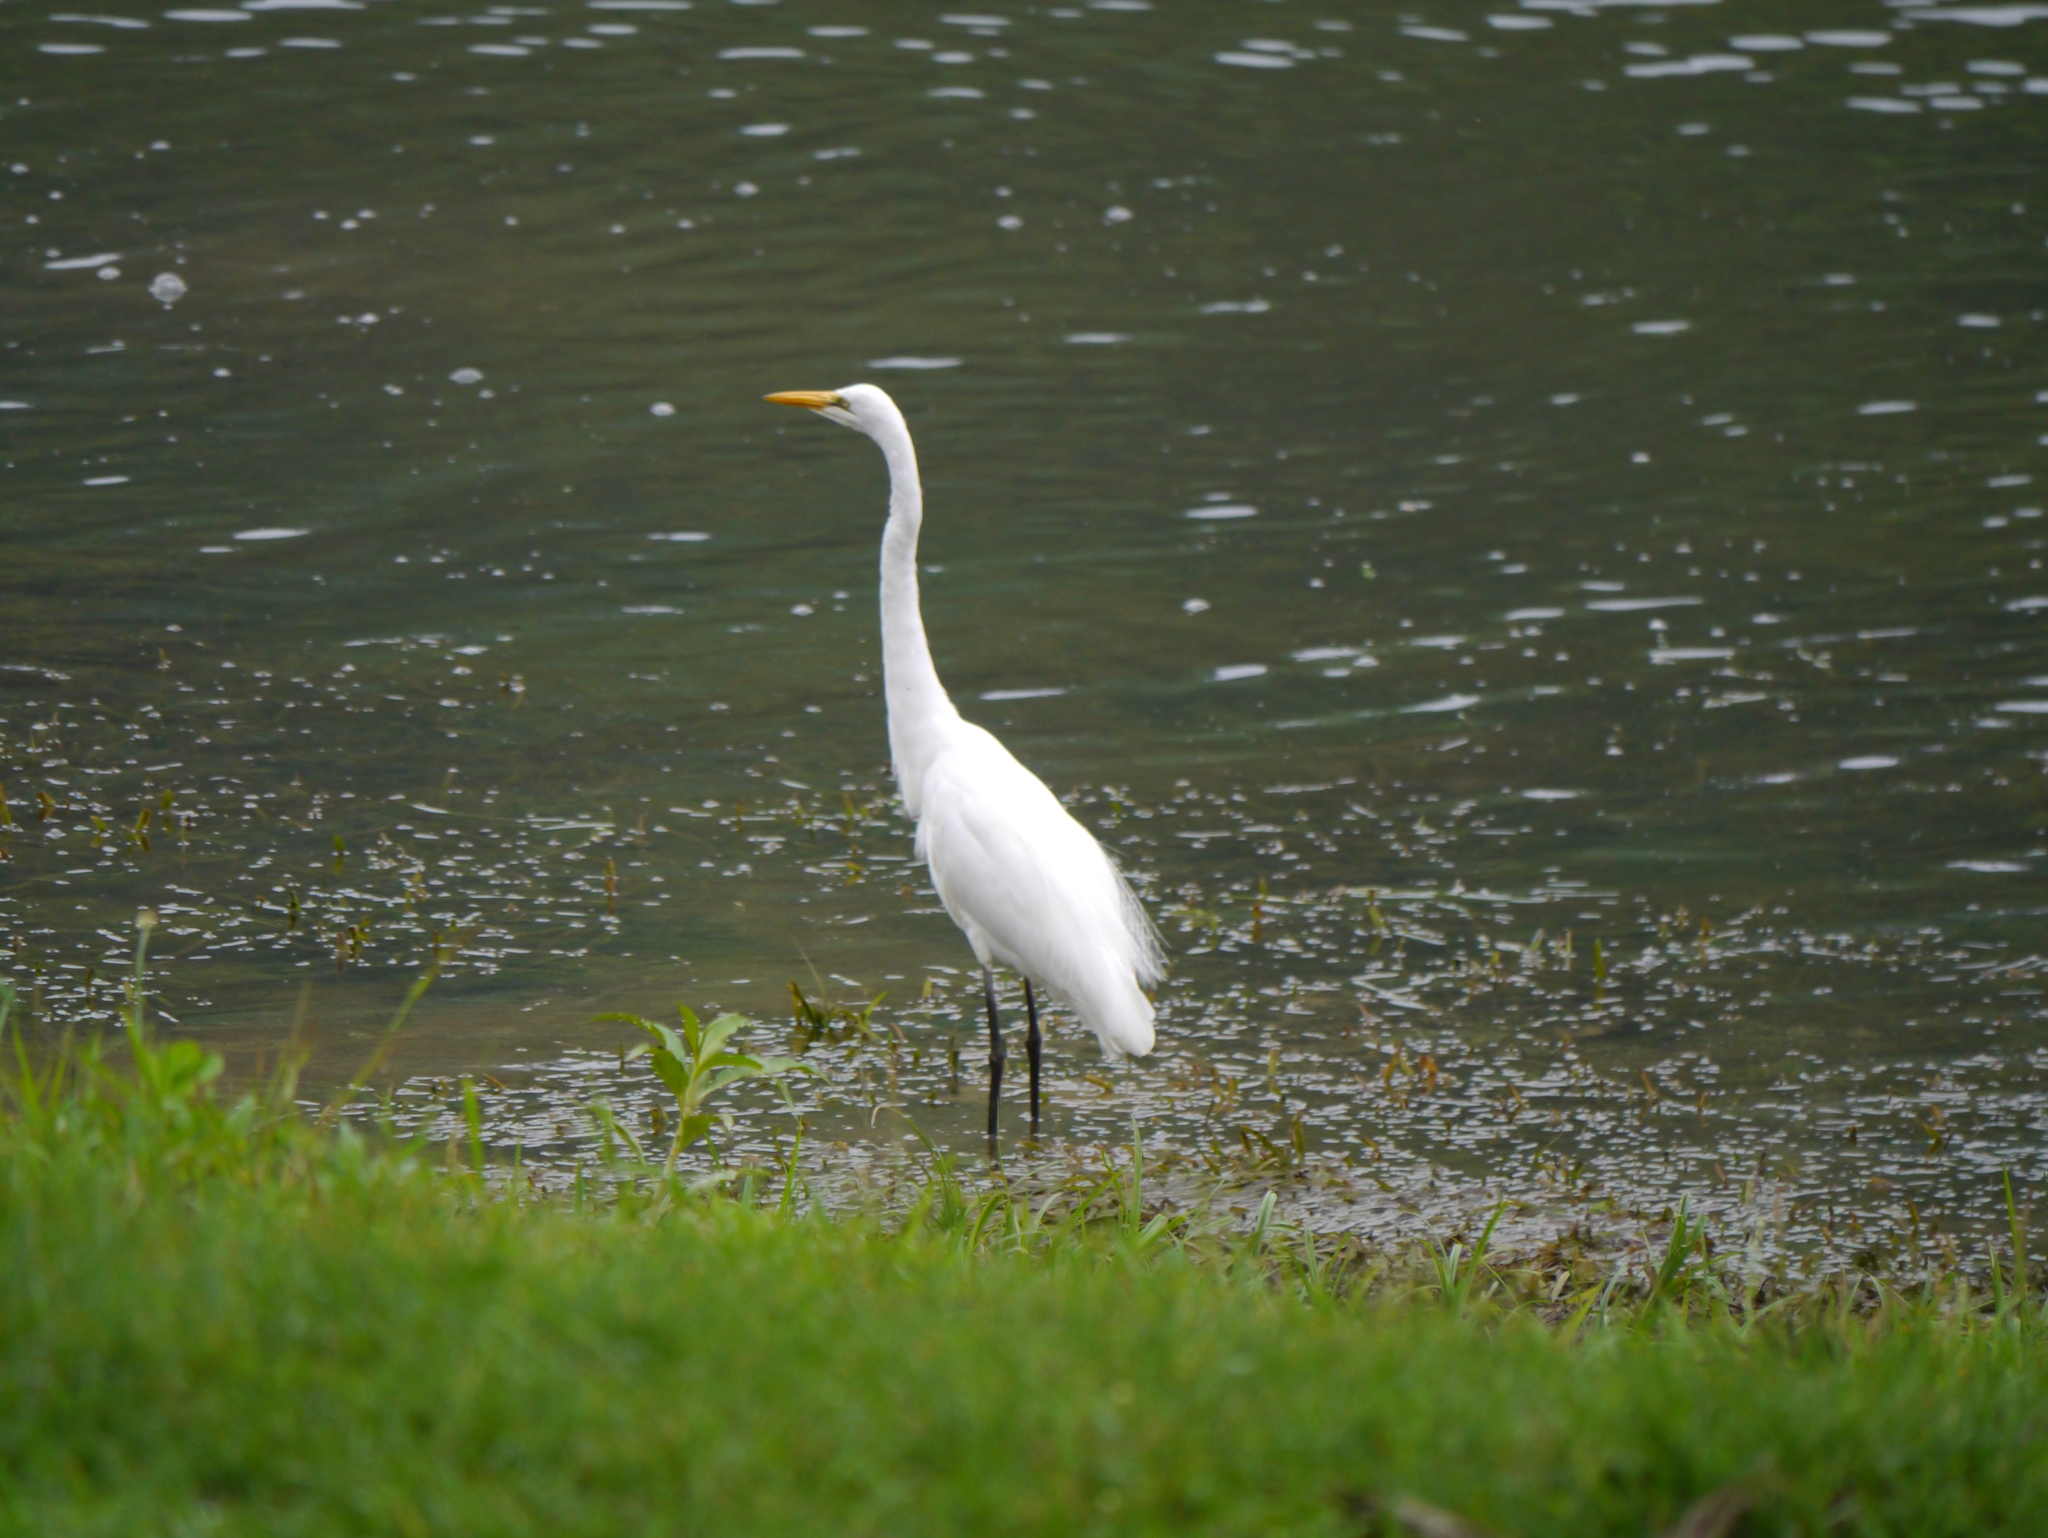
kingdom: Animalia
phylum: Chordata
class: Aves
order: Pelecaniformes
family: Ardeidae
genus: Ardea
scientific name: Ardea alba
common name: Great egret
